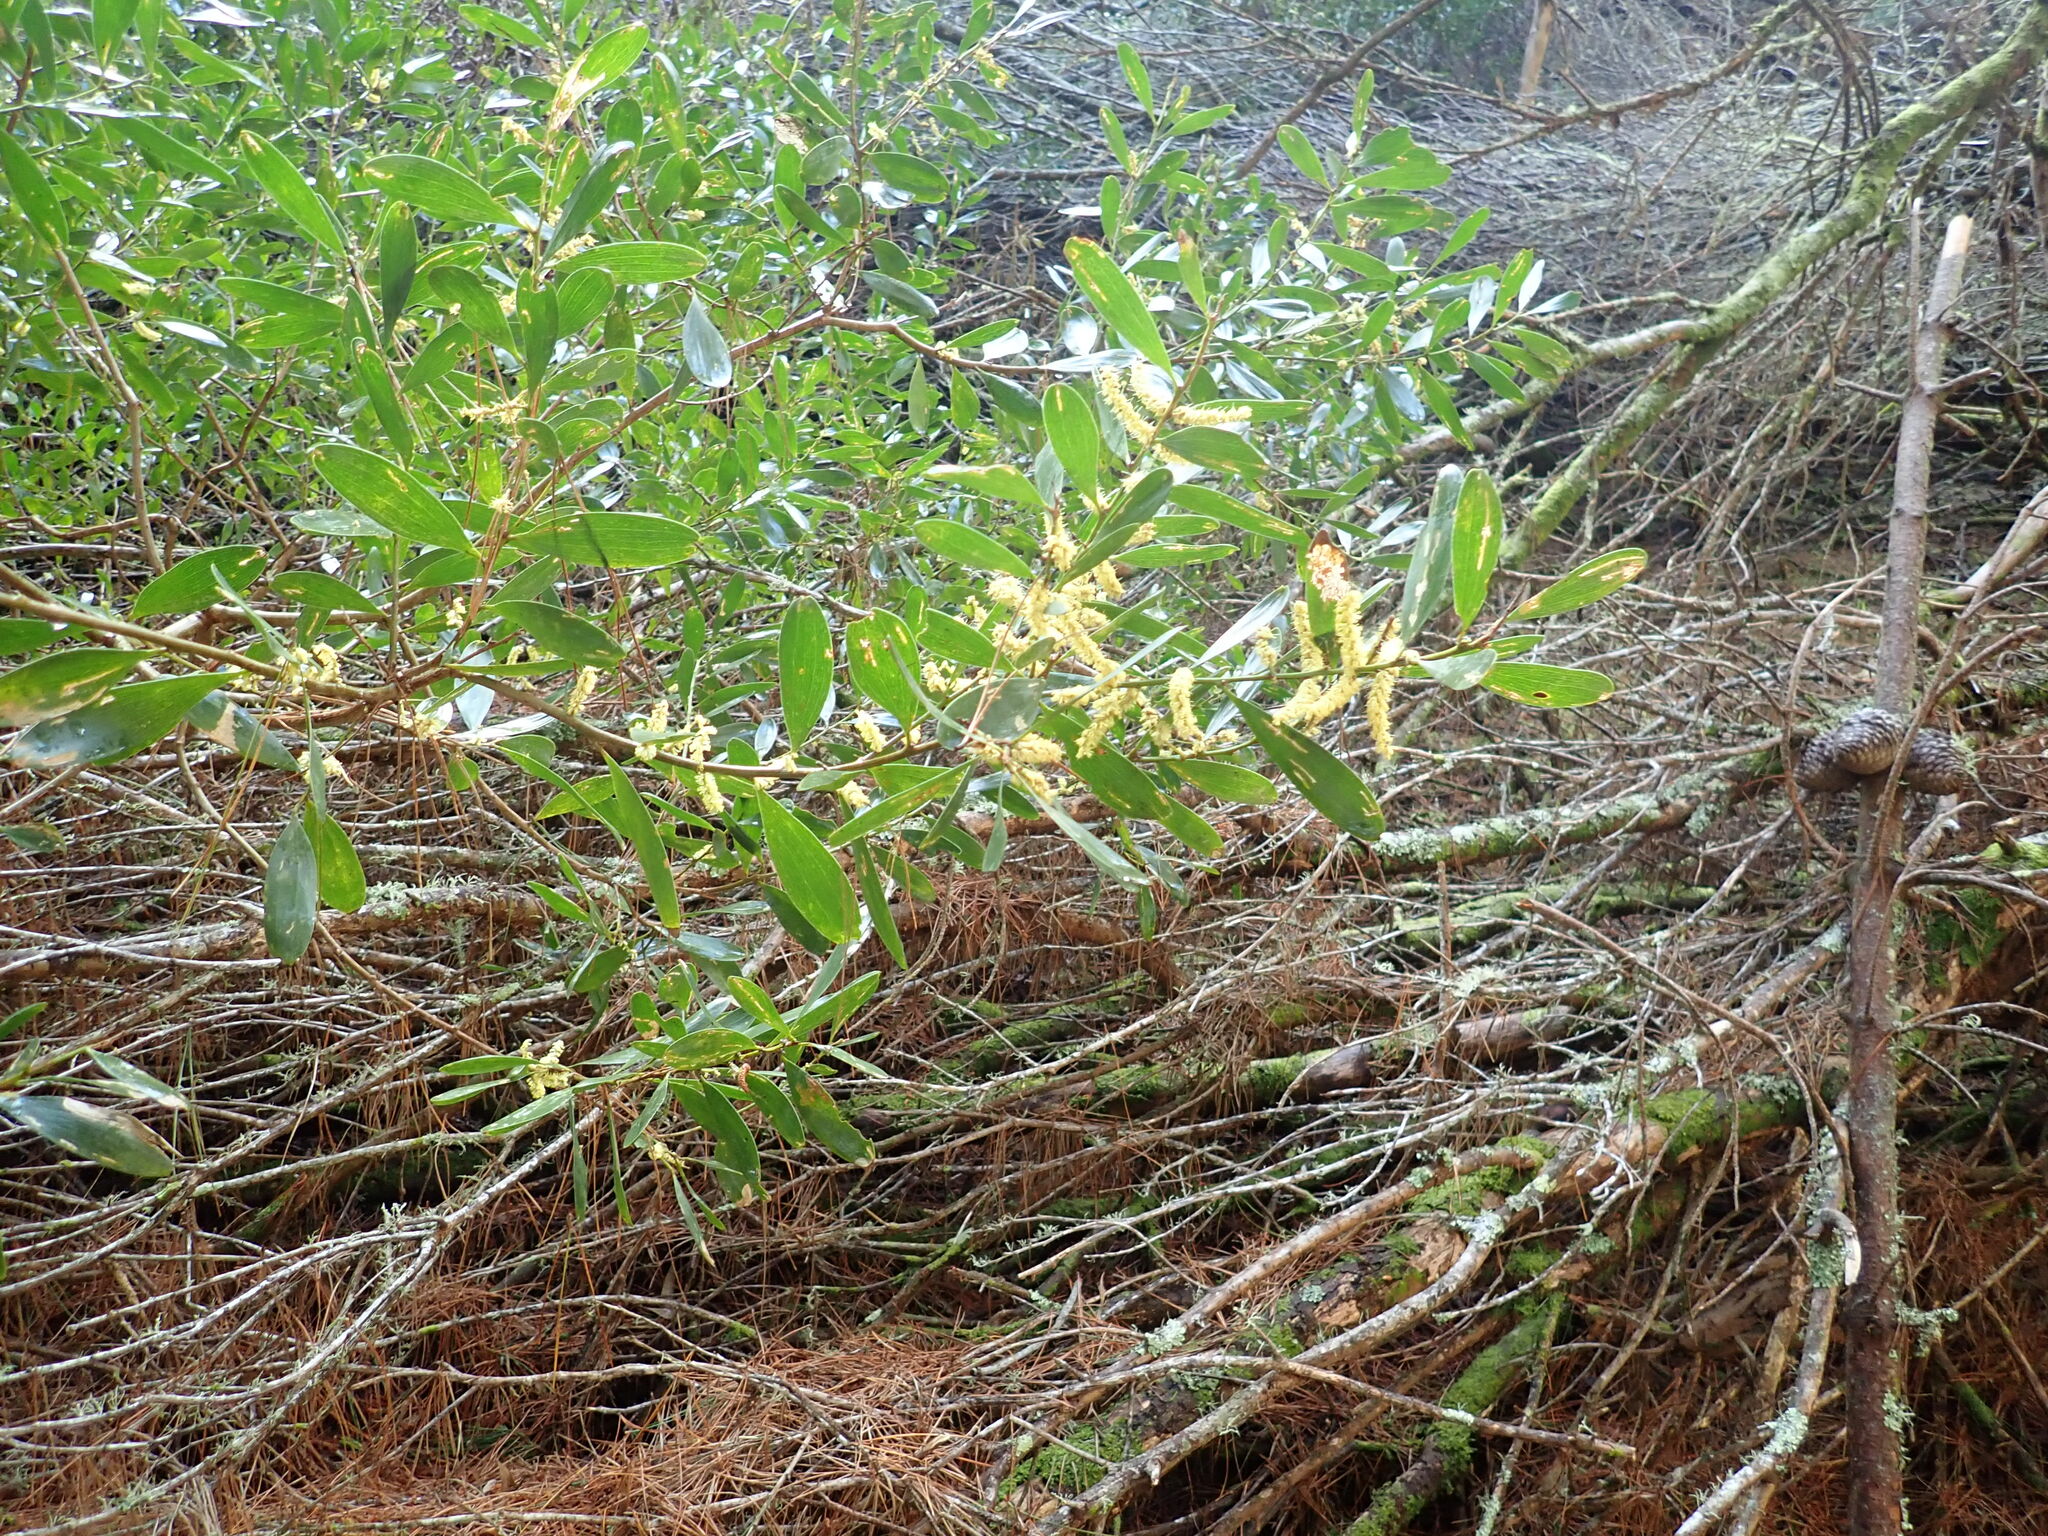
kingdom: Plantae
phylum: Tracheophyta
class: Magnoliopsida
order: Fabales
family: Fabaceae
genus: Acacia
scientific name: Acacia longifolia
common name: Sydney golden wattle
